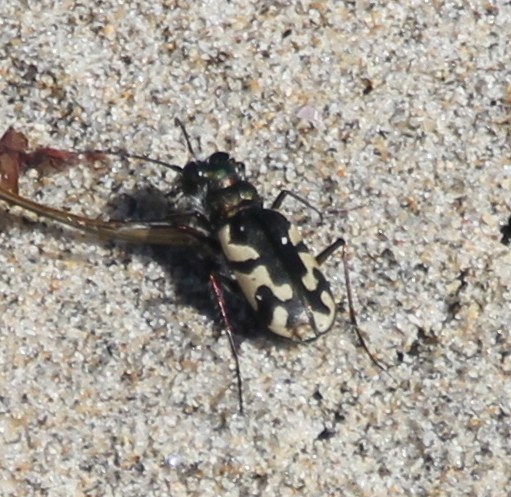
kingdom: Animalia
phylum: Arthropoda
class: Insecta
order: Coleoptera
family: Carabidae
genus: Cicindela
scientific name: Cicindela latesignata
